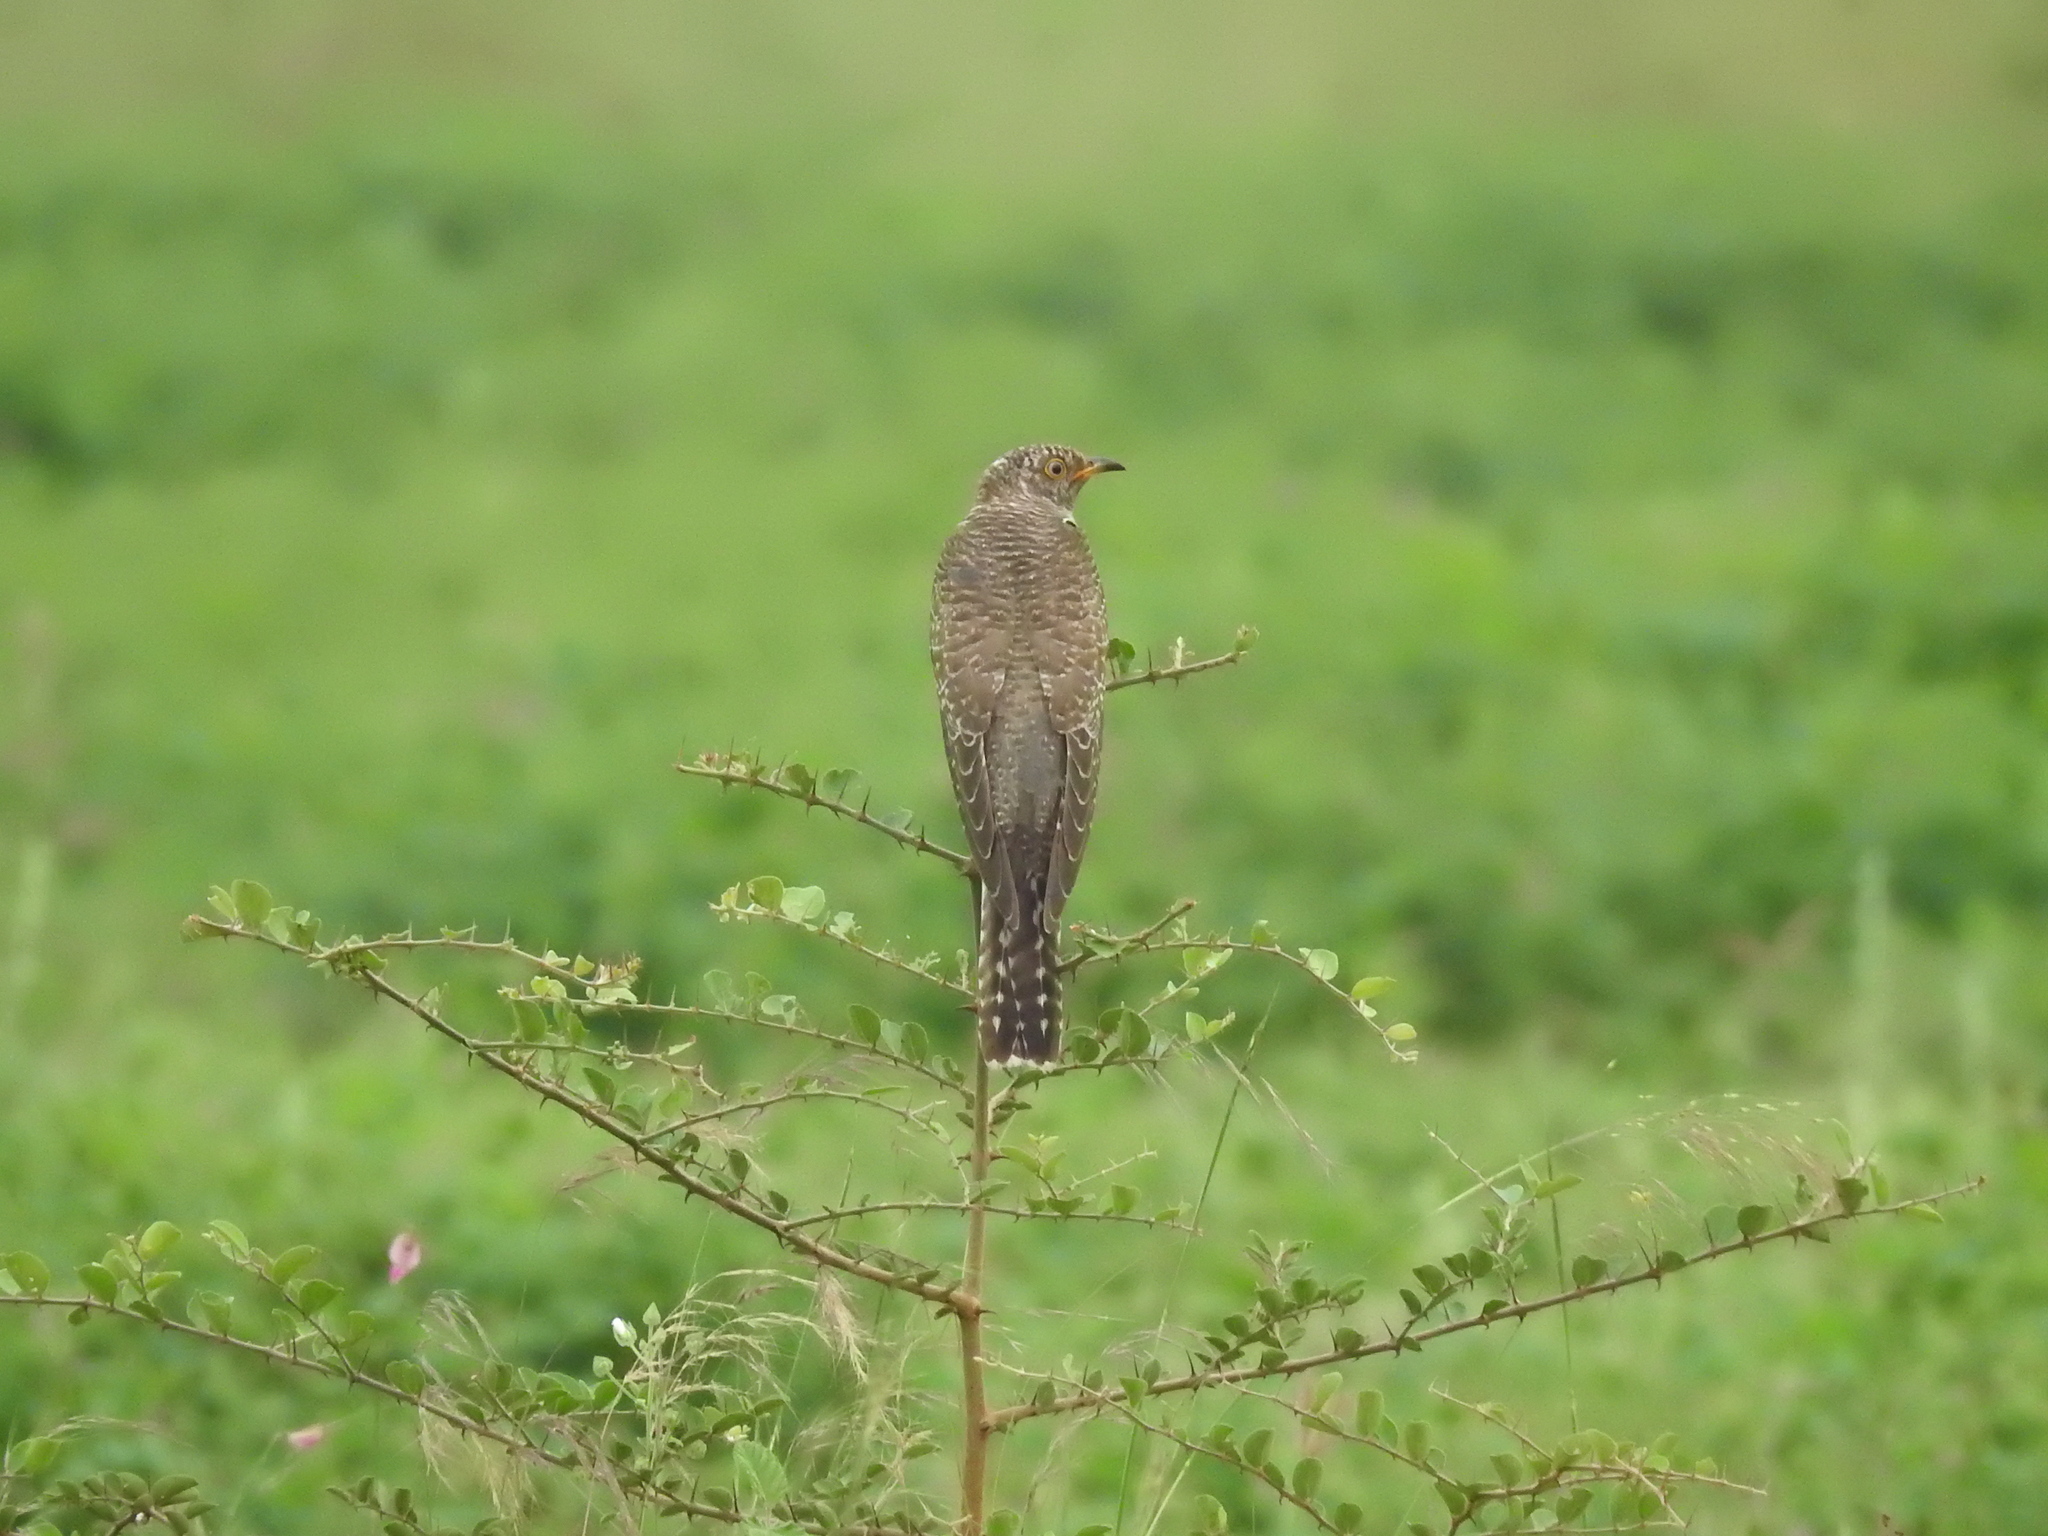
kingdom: Animalia
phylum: Chordata
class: Aves
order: Cuculiformes
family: Cuculidae
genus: Cuculus
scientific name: Cuculus canorus
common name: Common cuckoo
